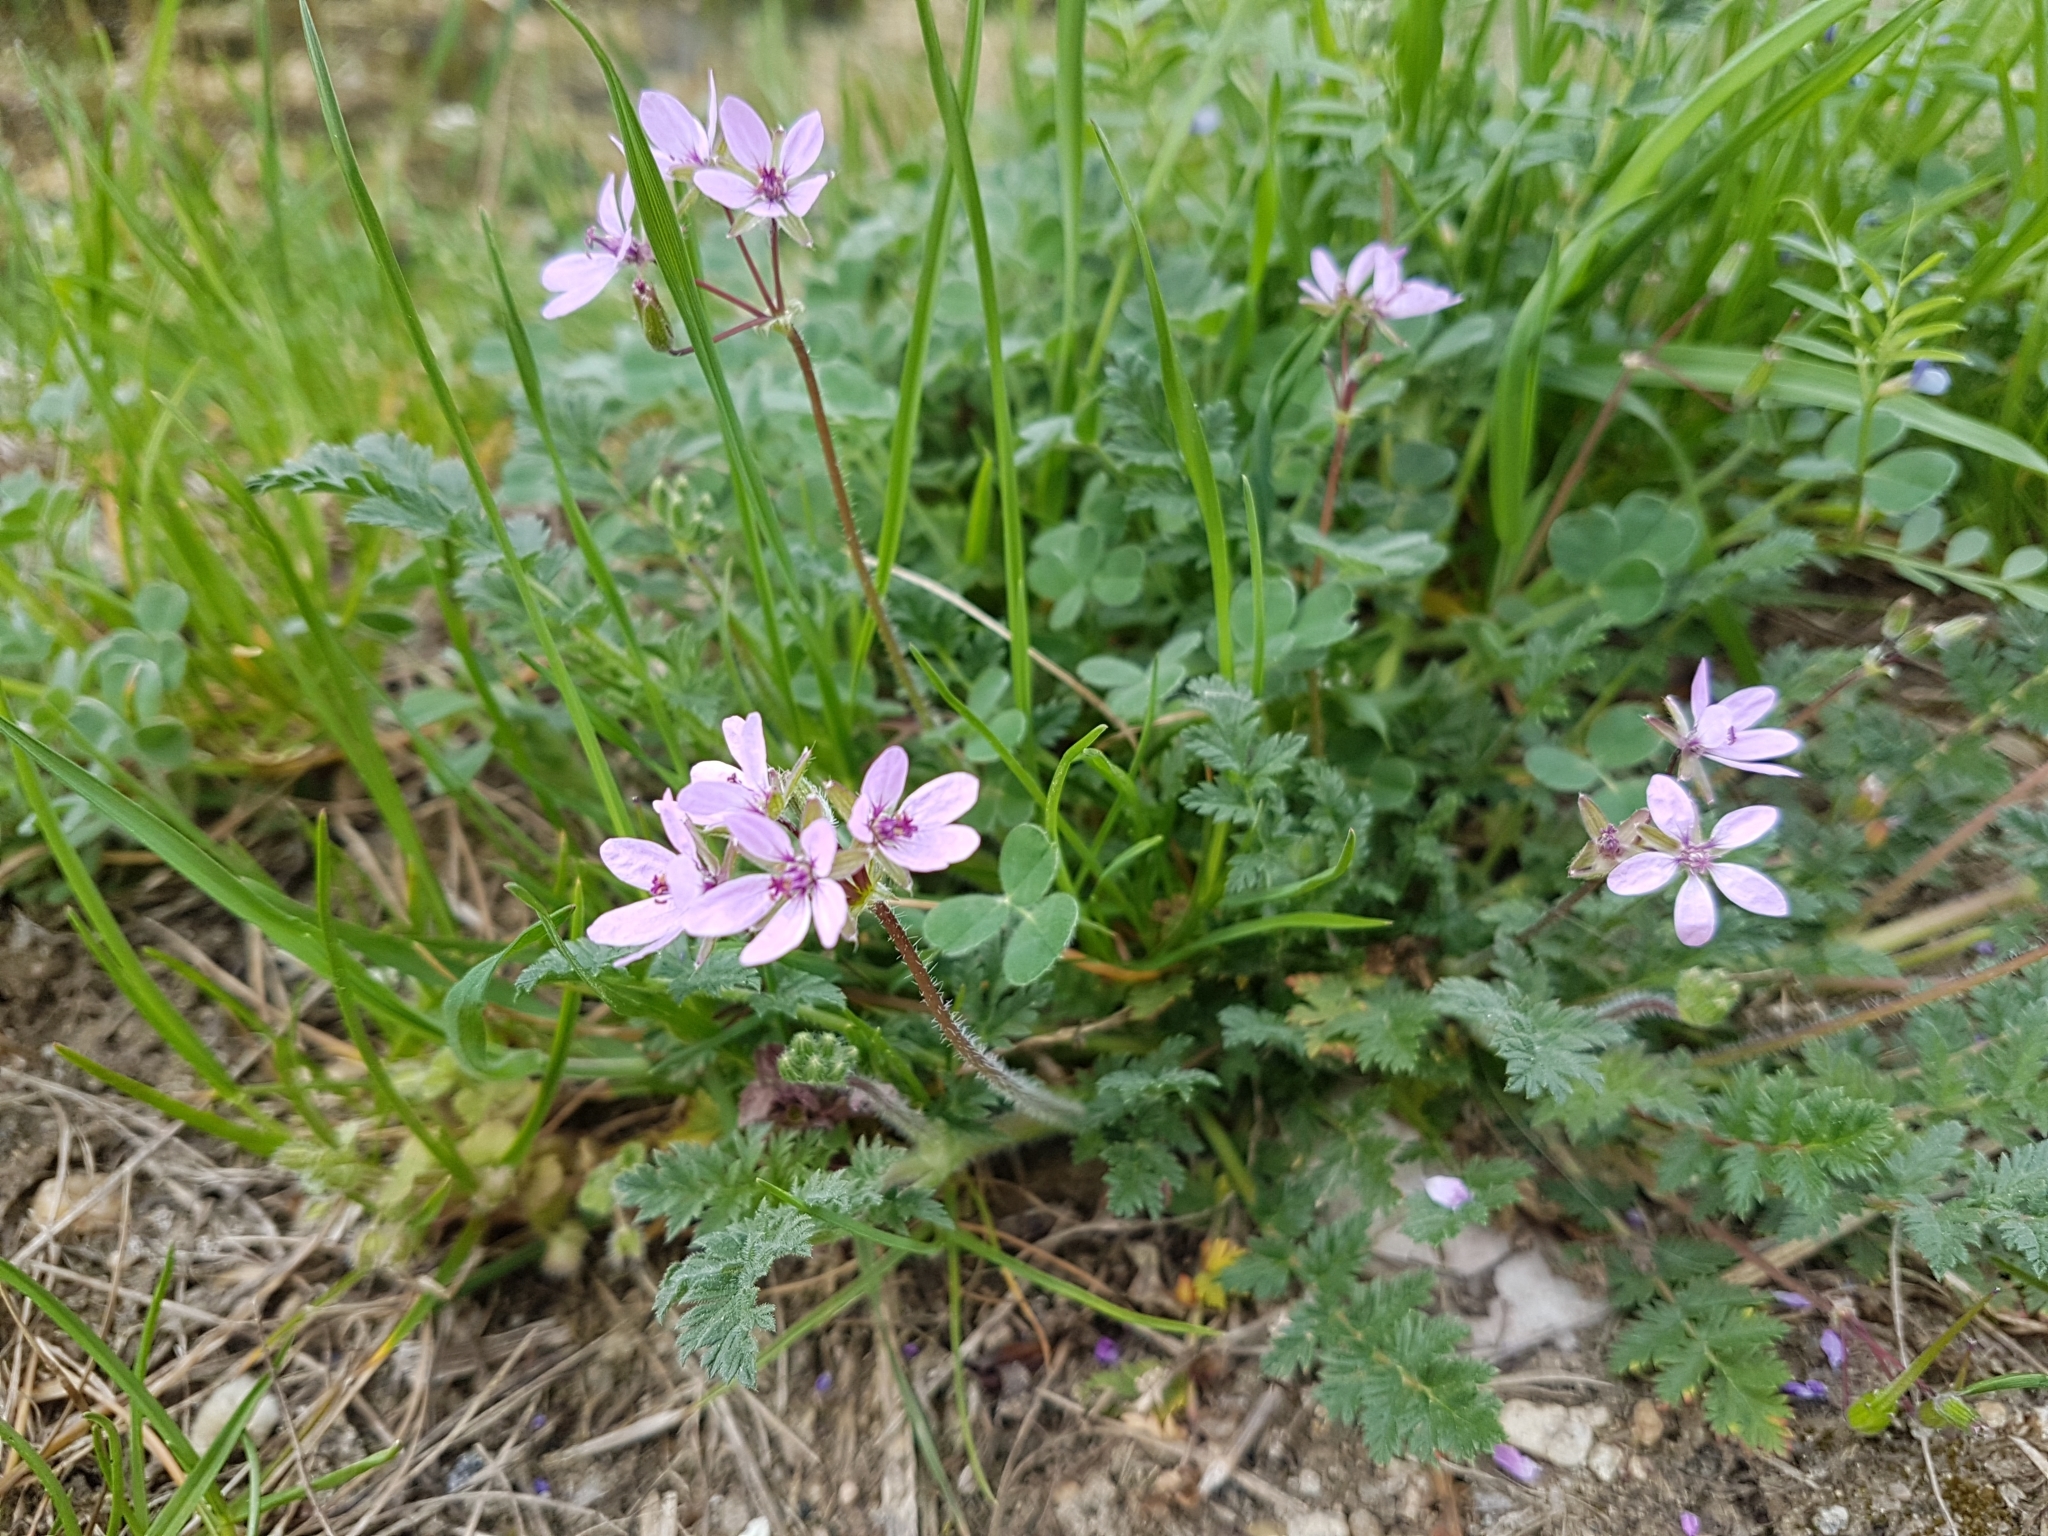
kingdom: Plantae
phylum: Tracheophyta
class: Magnoliopsida
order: Geraniales
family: Geraniaceae
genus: Erodium
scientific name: Erodium cicutarium
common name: Common stork's-bill
